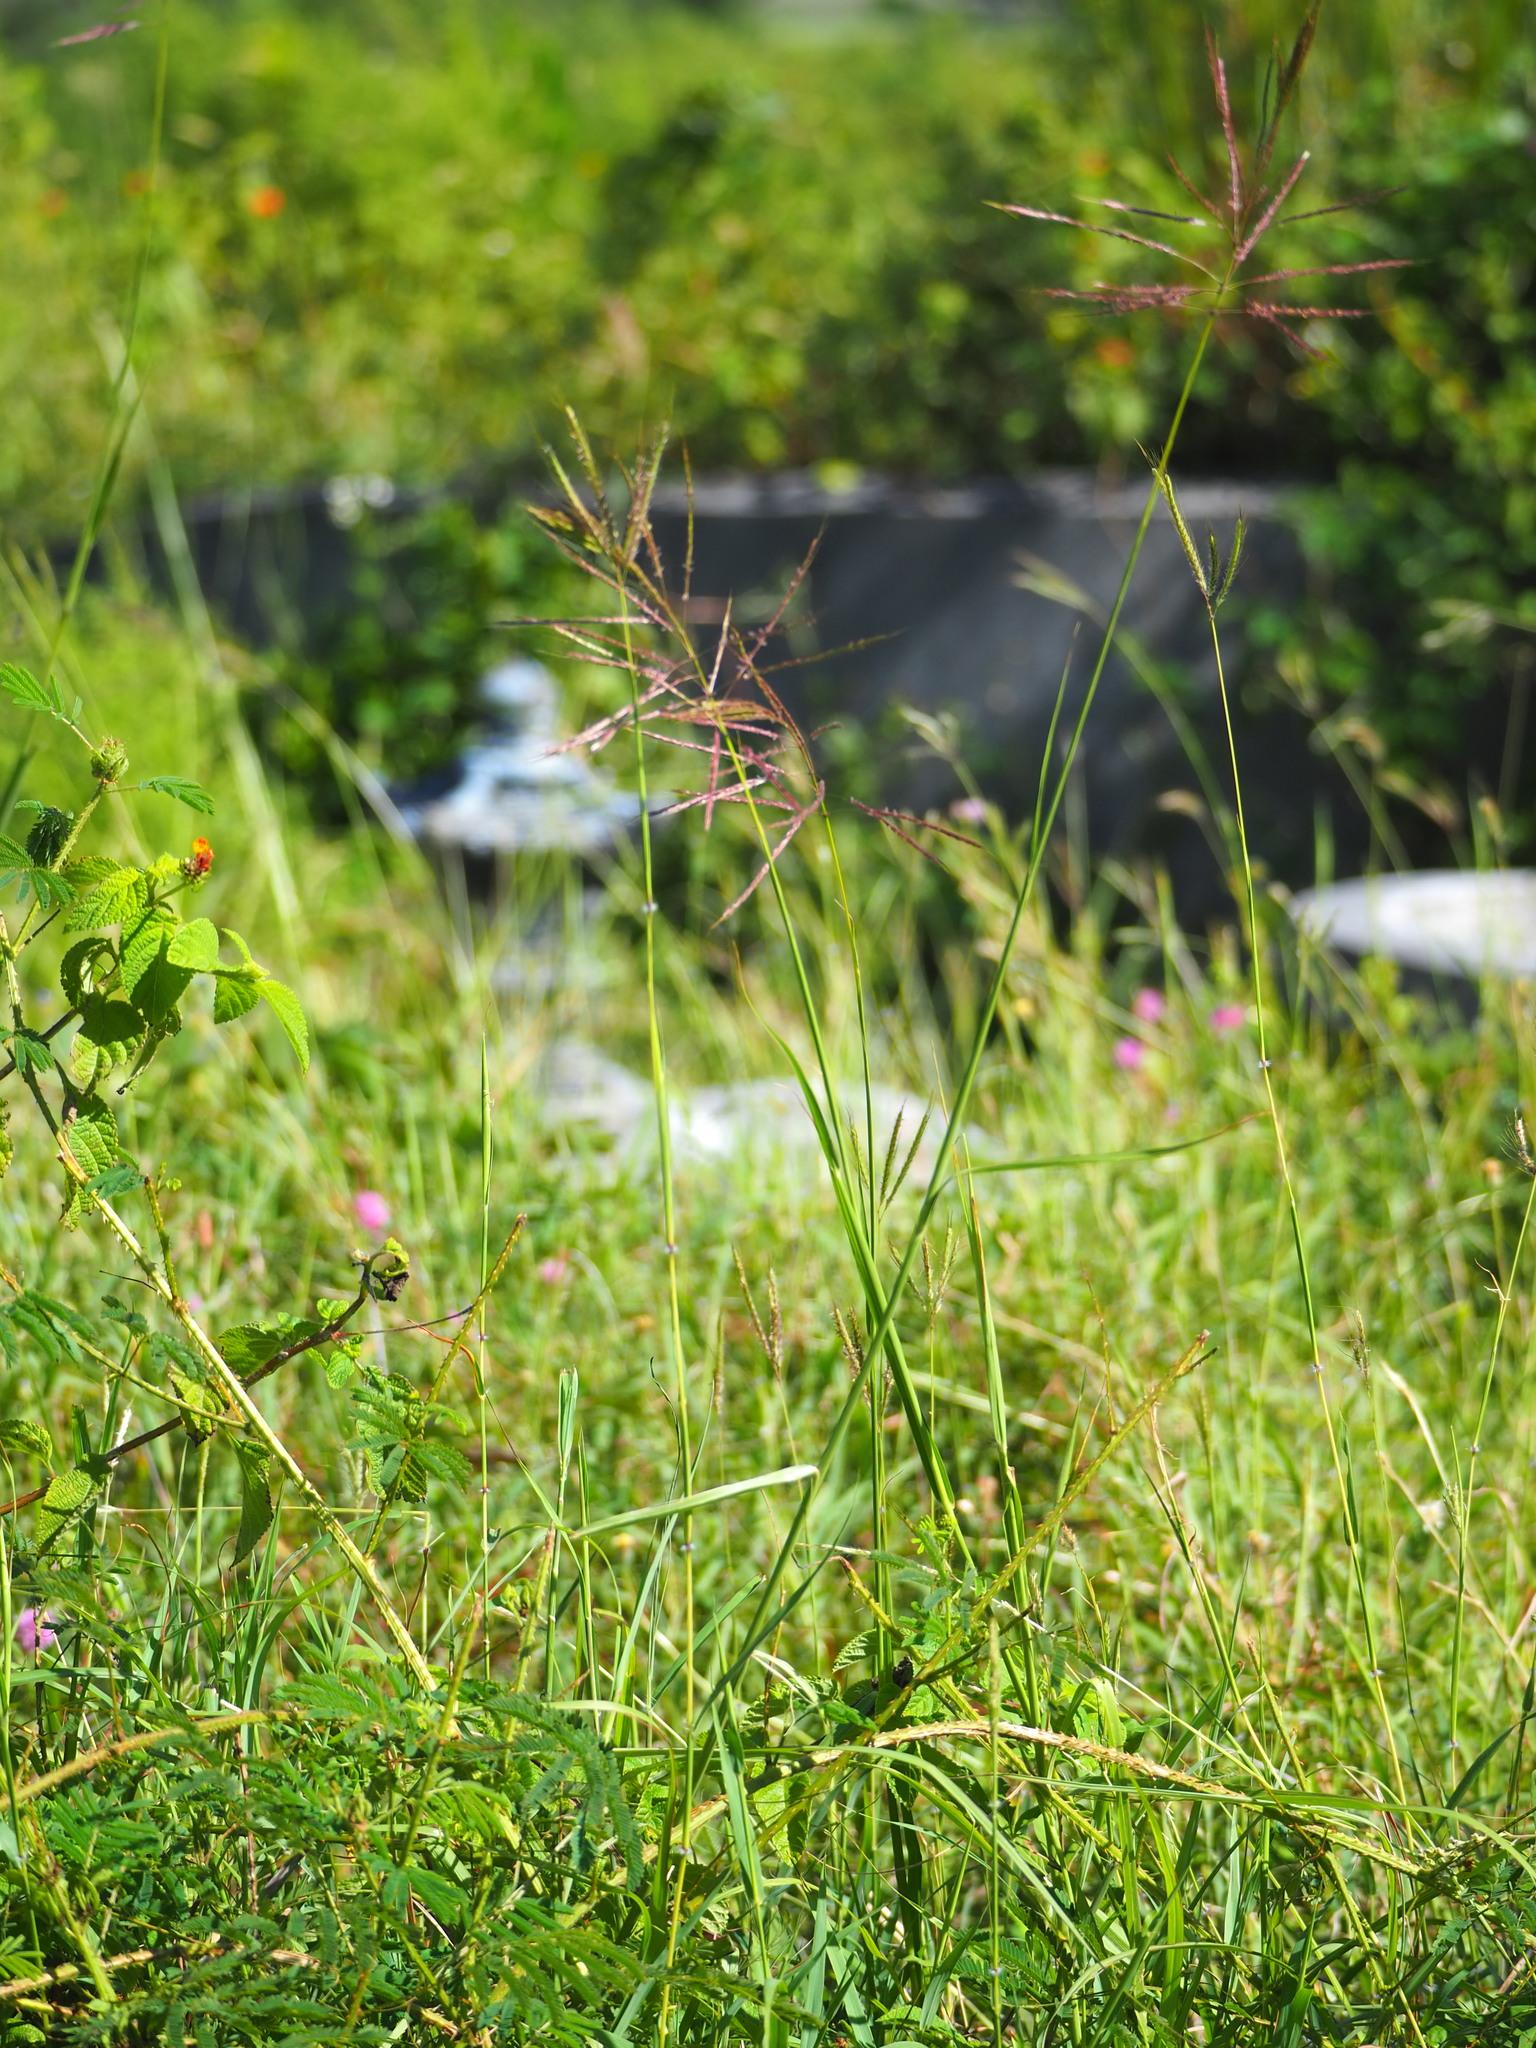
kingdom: Plantae
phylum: Tracheophyta
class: Liliopsida
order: Poales
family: Poaceae
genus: Bothriochloa
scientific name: Bothriochloa glabra
